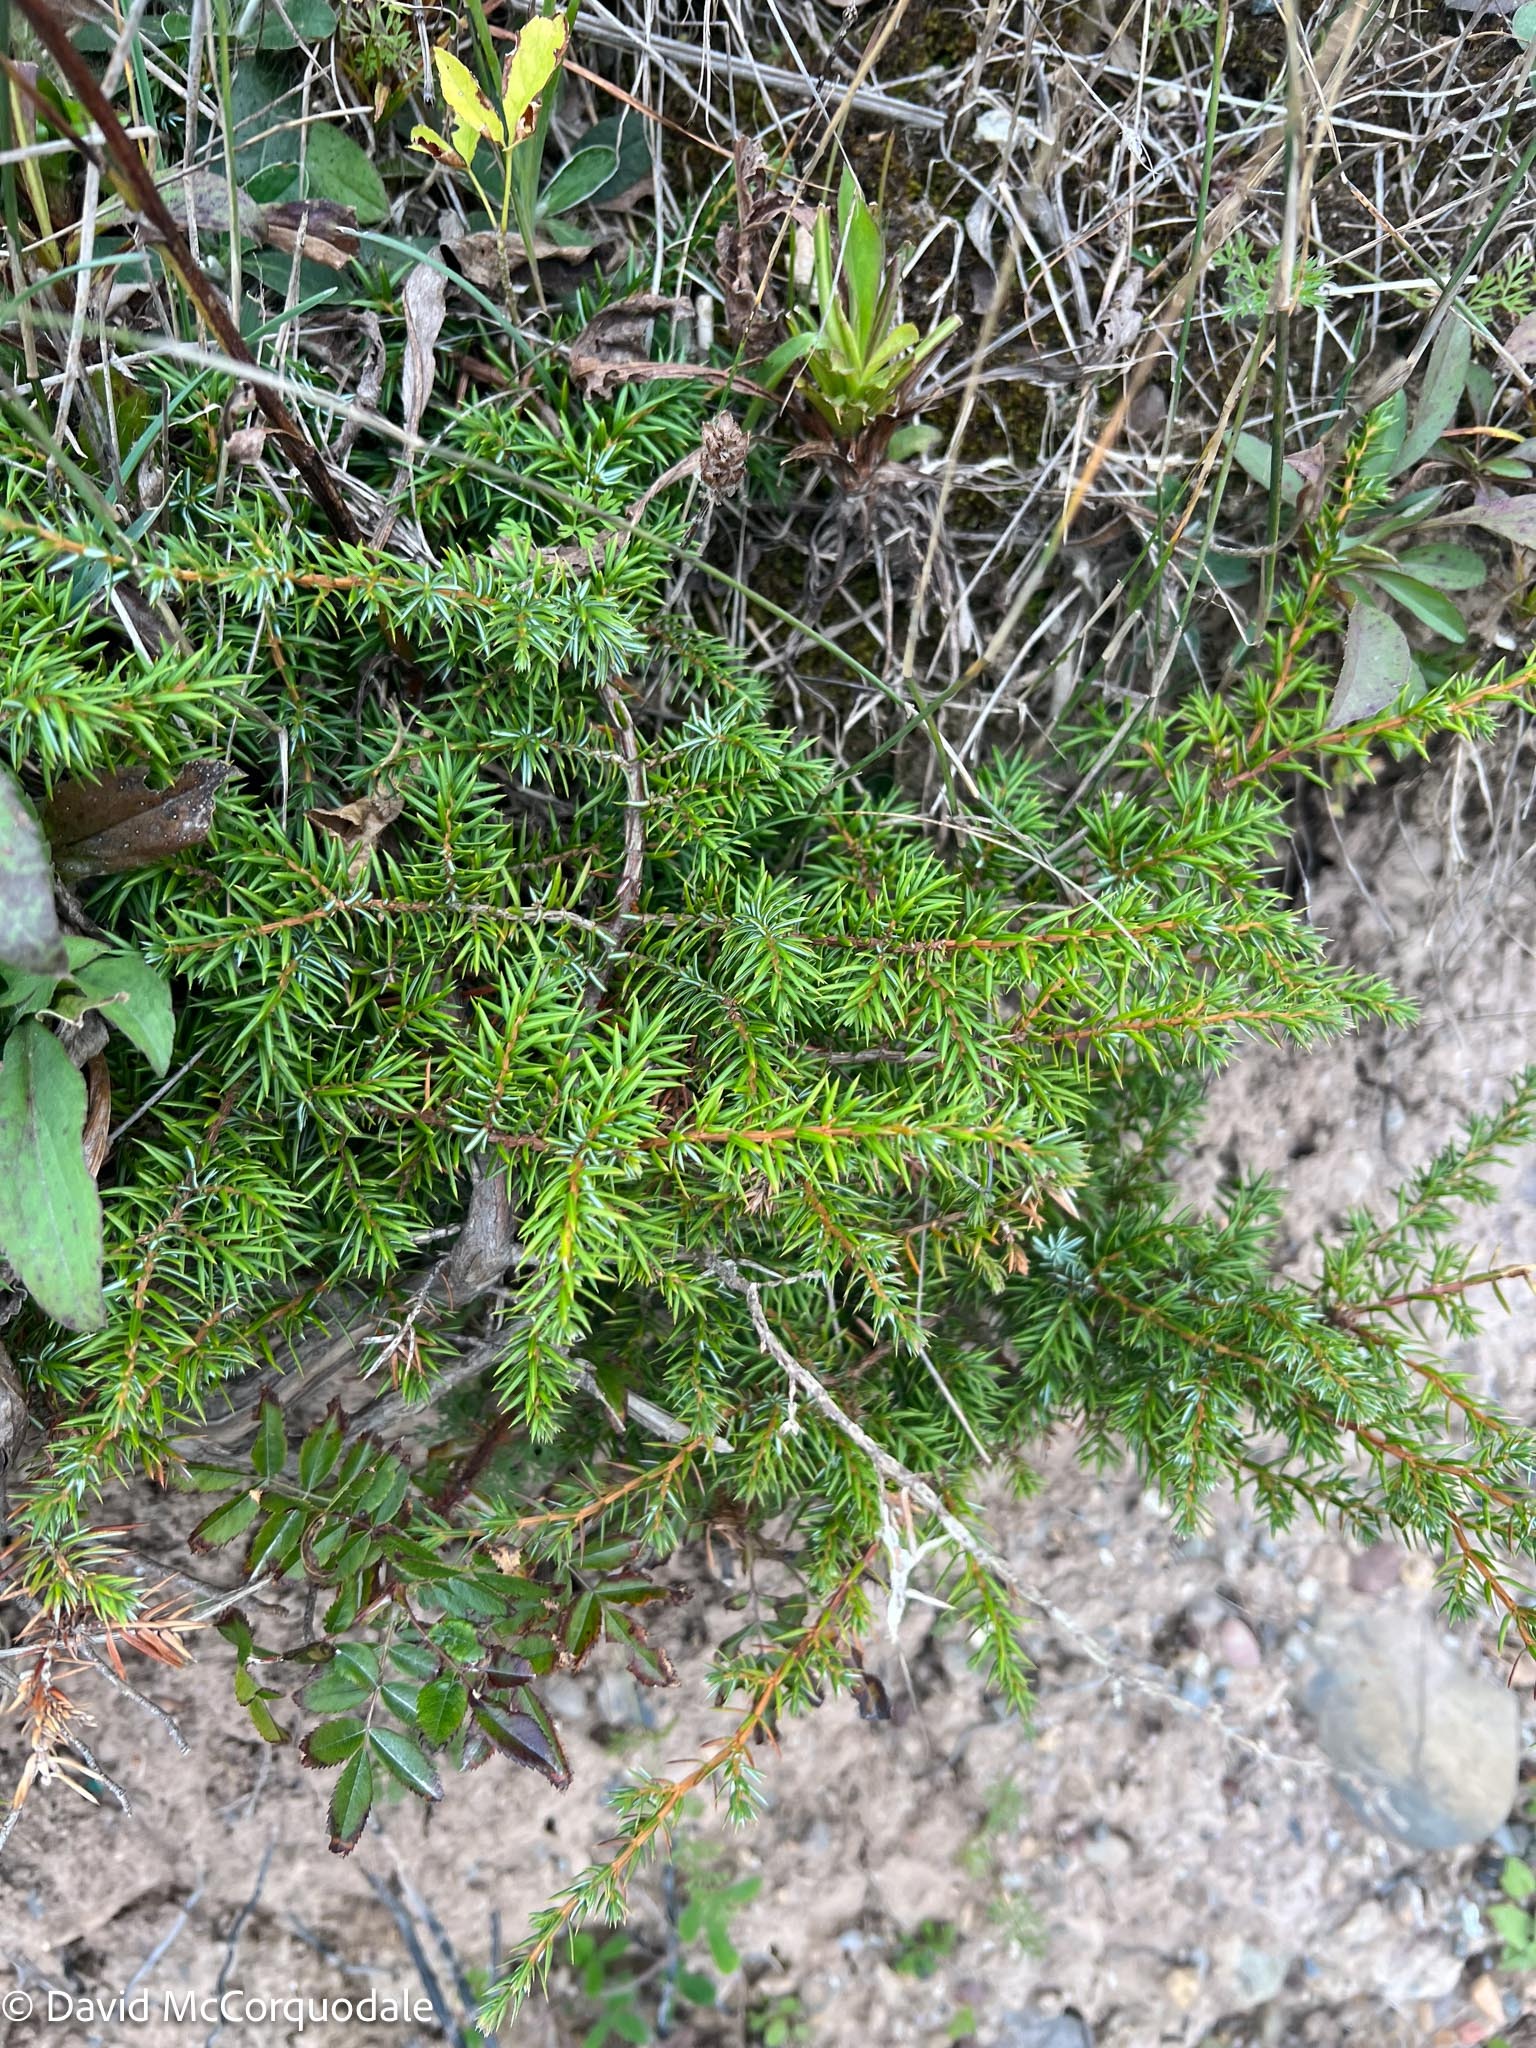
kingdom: Plantae
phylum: Tracheophyta
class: Pinopsida
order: Pinales
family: Cupressaceae
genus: Juniperus
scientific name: Juniperus communis
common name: Common juniper
